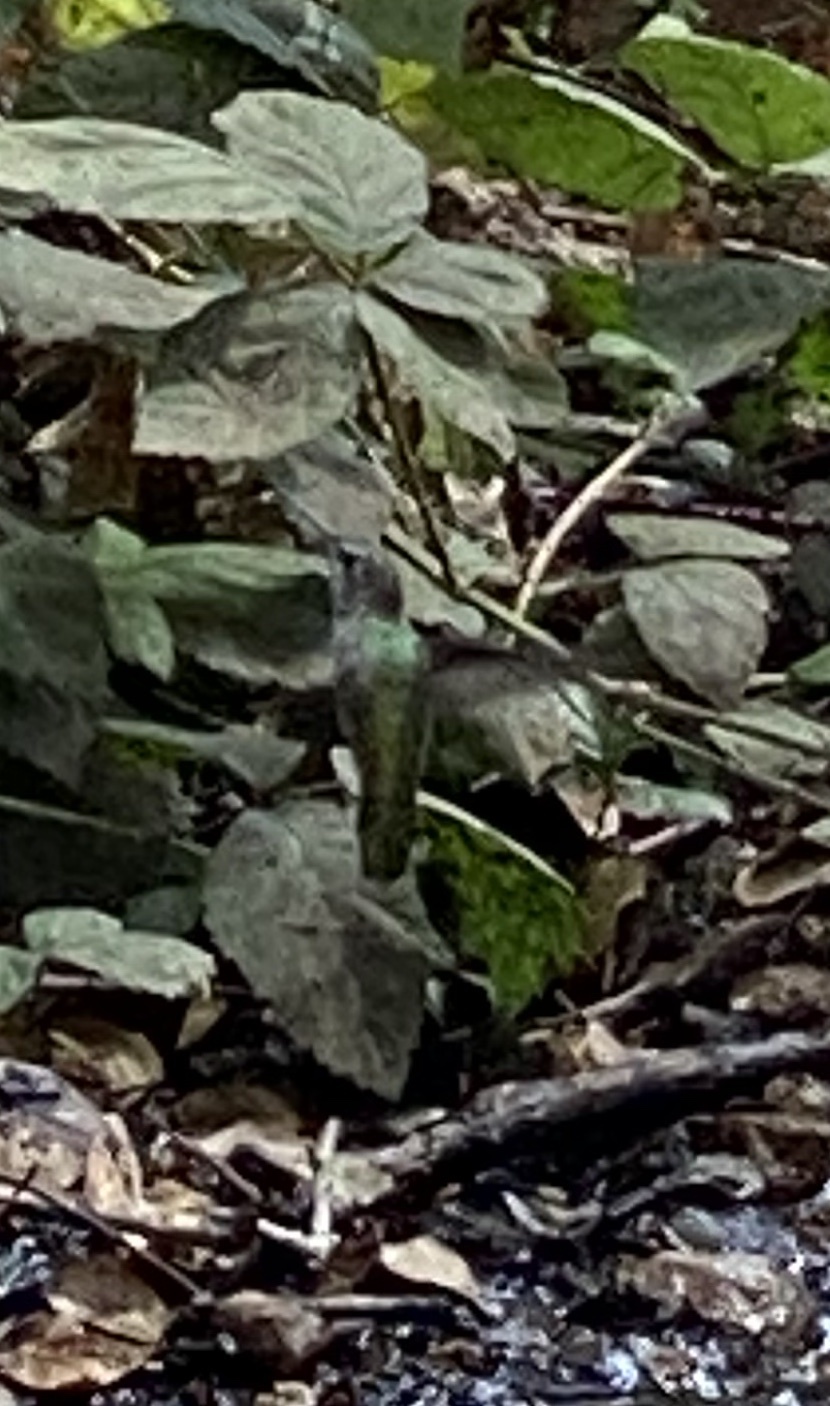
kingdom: Animalia
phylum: Chordata
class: Aves
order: Apodiformes
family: Trochilidae
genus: Calypte
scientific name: Calypte anna
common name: Anna's hummingbird
